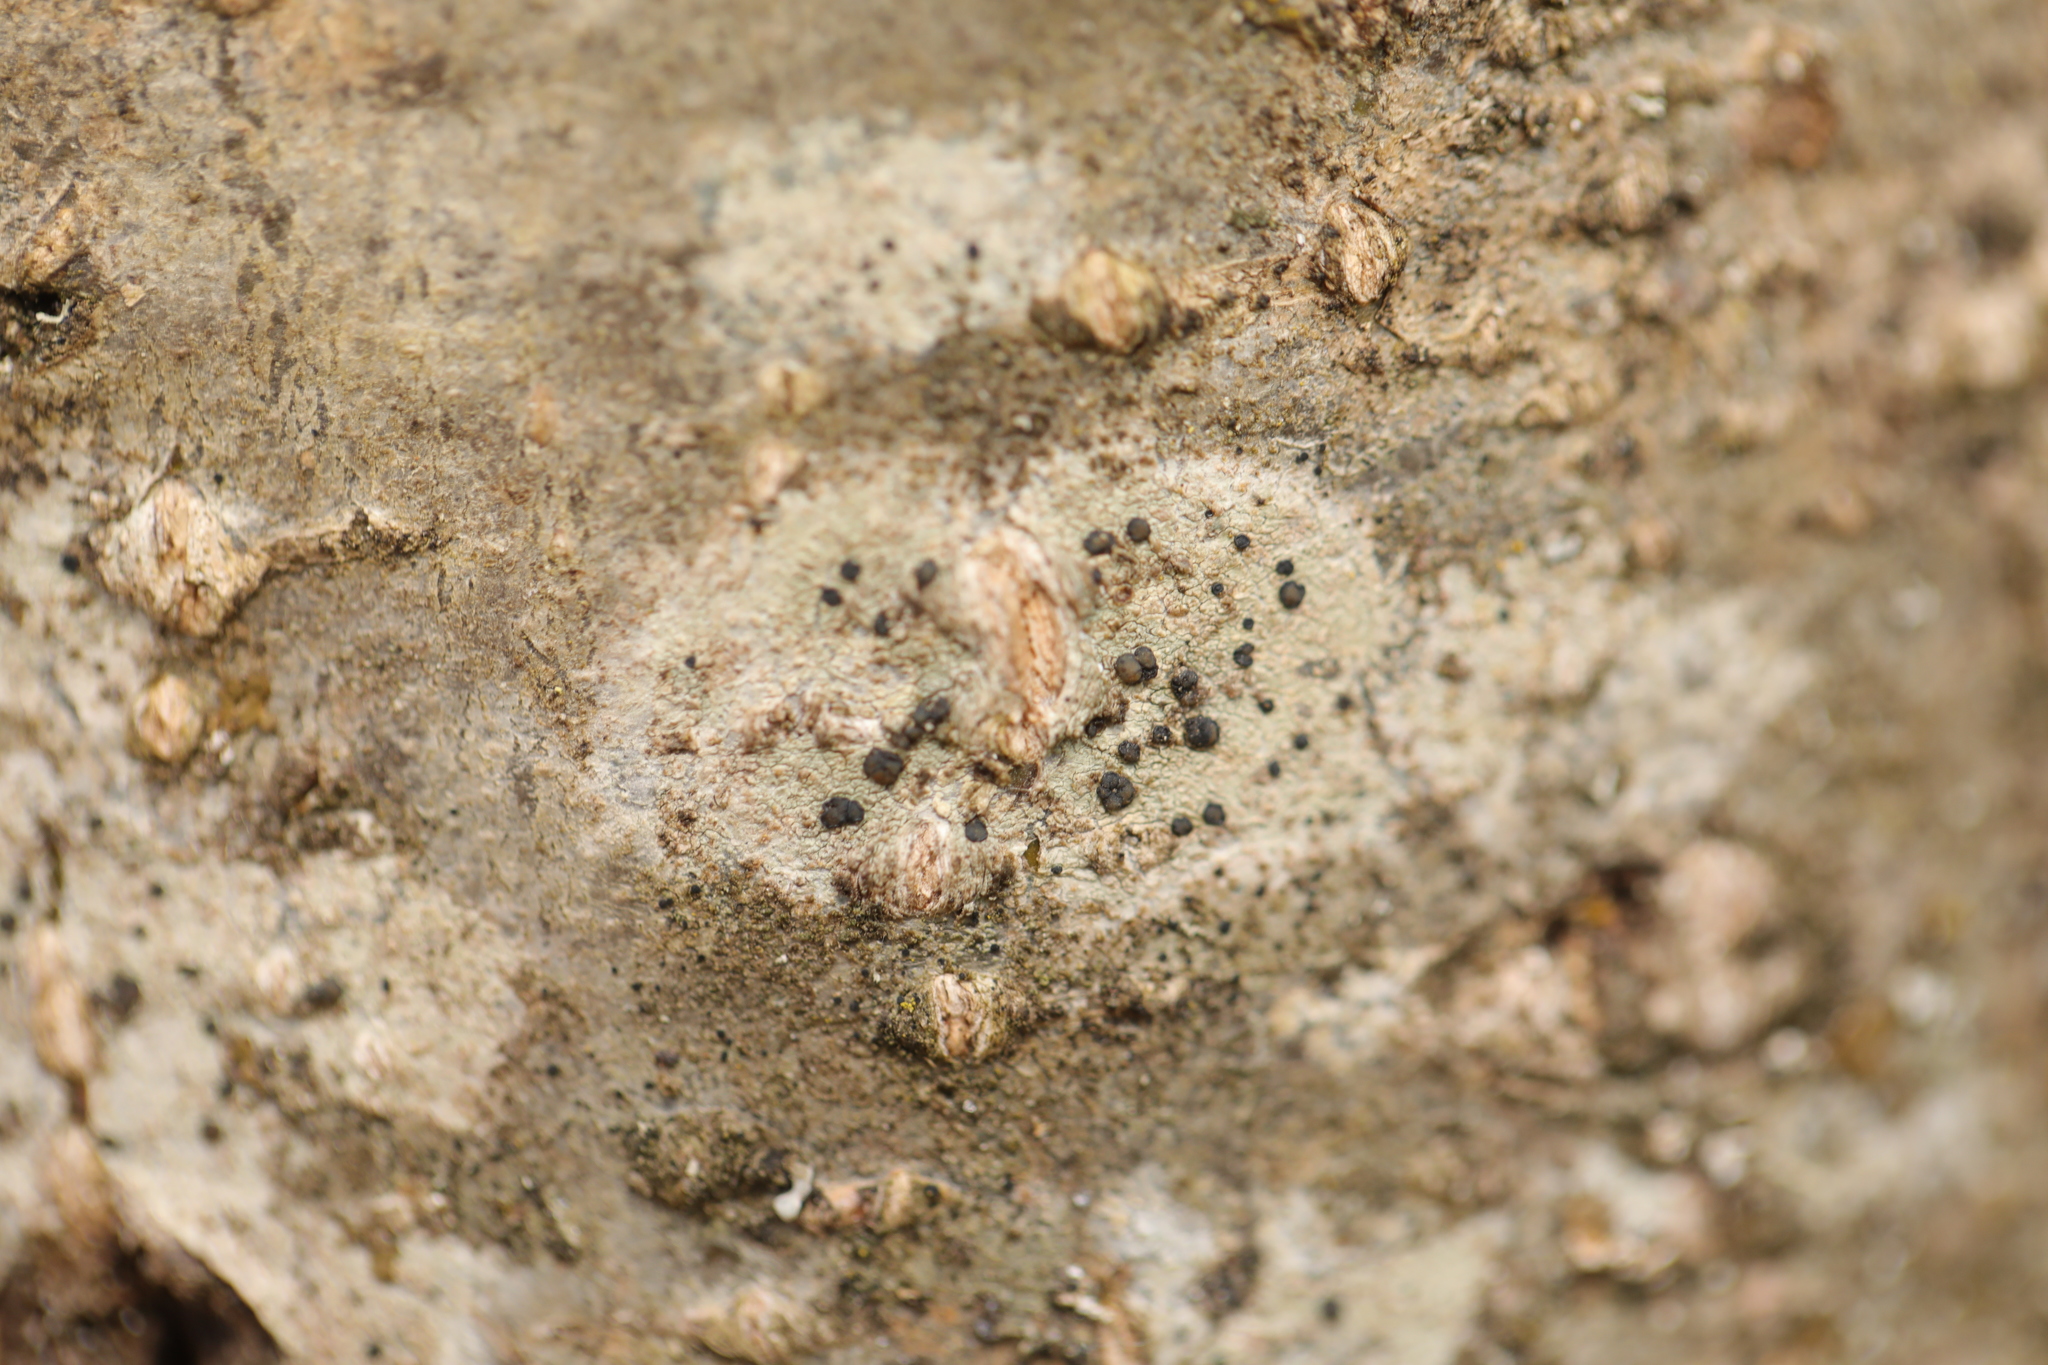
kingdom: Fungi
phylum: Ascomycota
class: Lecanoromycetes
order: Lecanorales
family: Lecanoraceae
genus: Lecidella
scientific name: Lecidella elaeochroma
